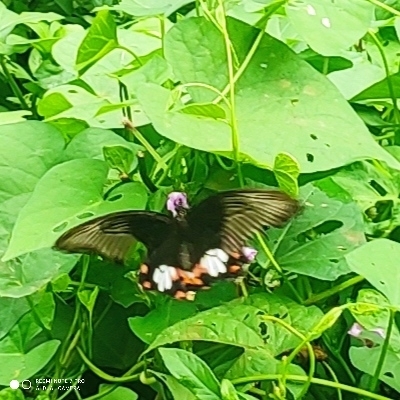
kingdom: Animalia
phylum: Arthropoda
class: Insecta
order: Lepidoptera
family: Papilionidae
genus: Papilio
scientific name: Papilio polytes
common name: Common mormon
